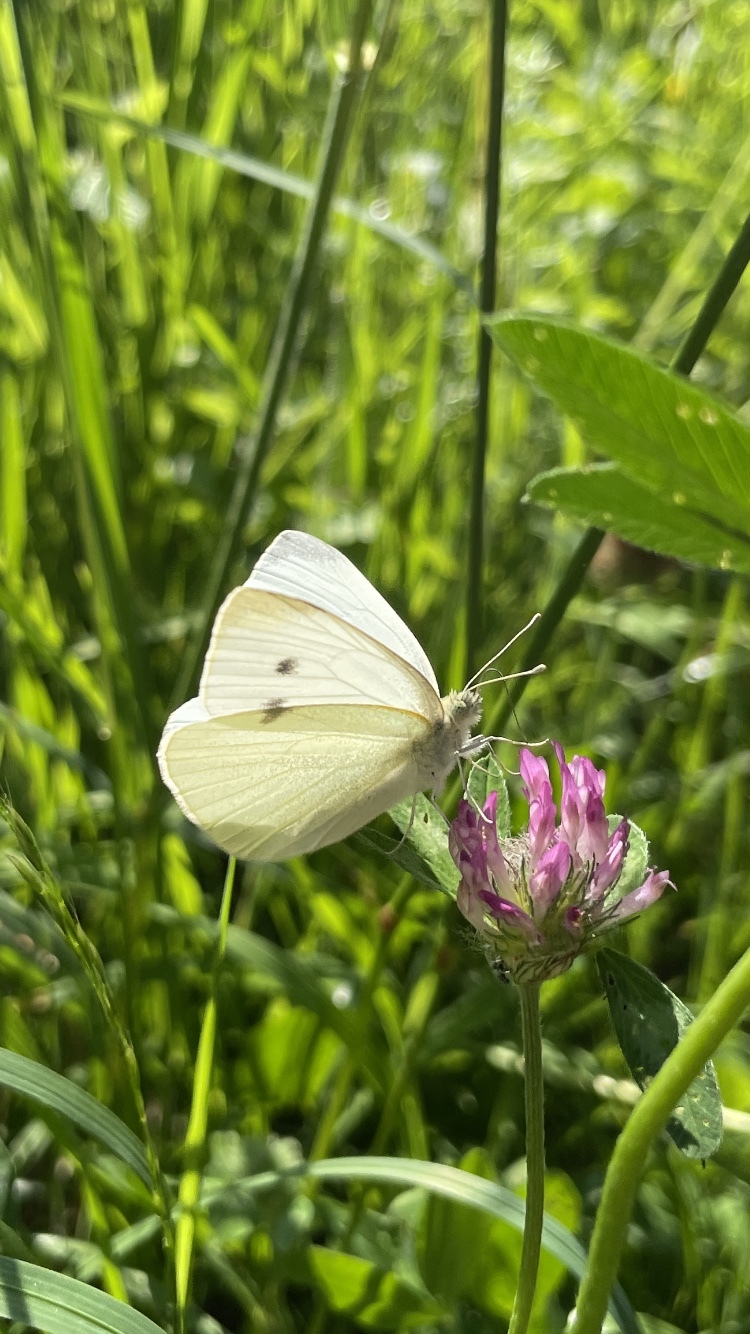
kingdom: Animalia
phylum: Arthropoda
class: Insecta
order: Lepidoptera
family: Pieridae
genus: Pieris
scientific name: Pieris rapae
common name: Small white
